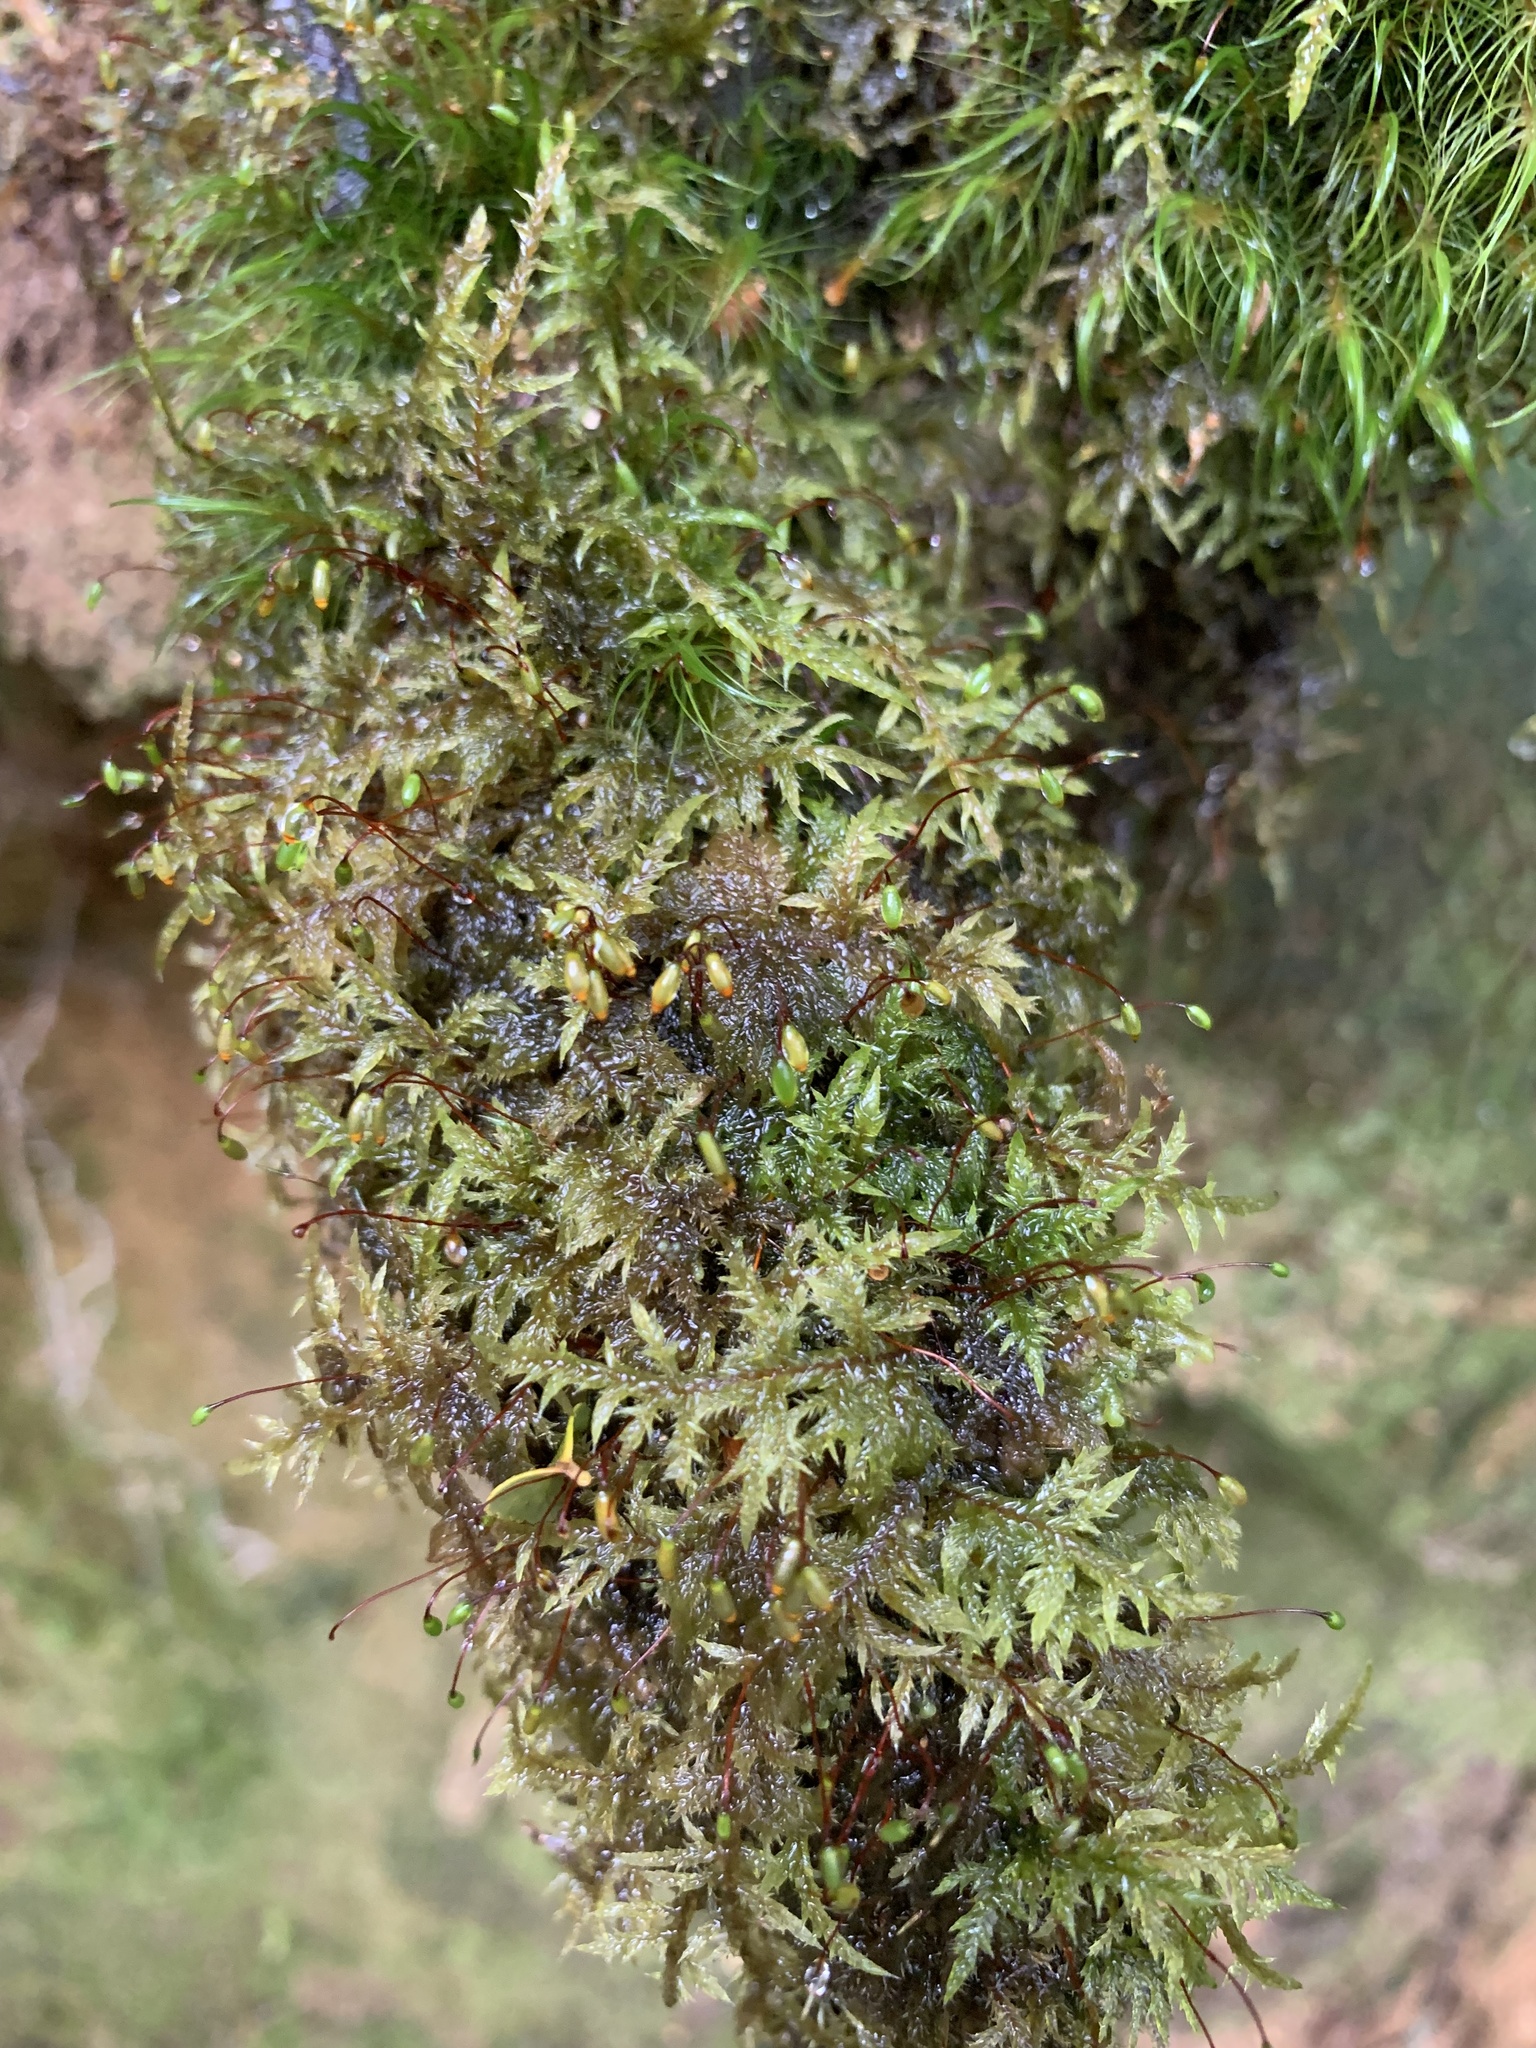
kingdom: Plantae
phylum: Bryophyta
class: Bryopsida
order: Hypnales
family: Pylaisiadelphaceae
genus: Wijkia
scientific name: Wijkia extenuata
